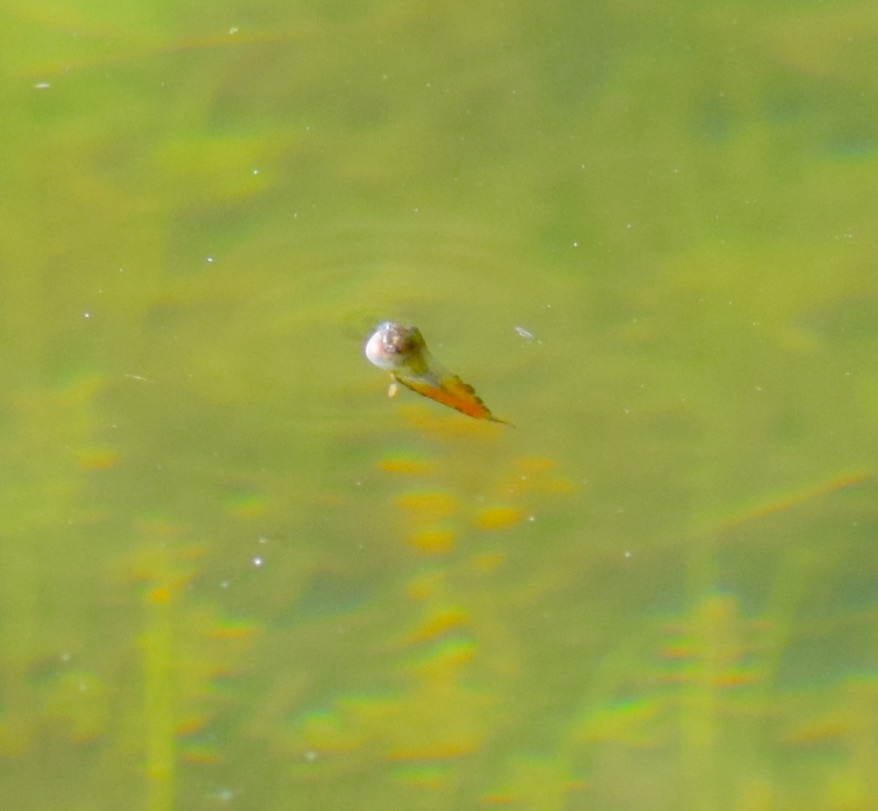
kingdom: Animalia
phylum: Chordata
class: Amphibia
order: Anura
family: Hylidae
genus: Dryophytes
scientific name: Dryophytes versicolor
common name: Gray treefrog
